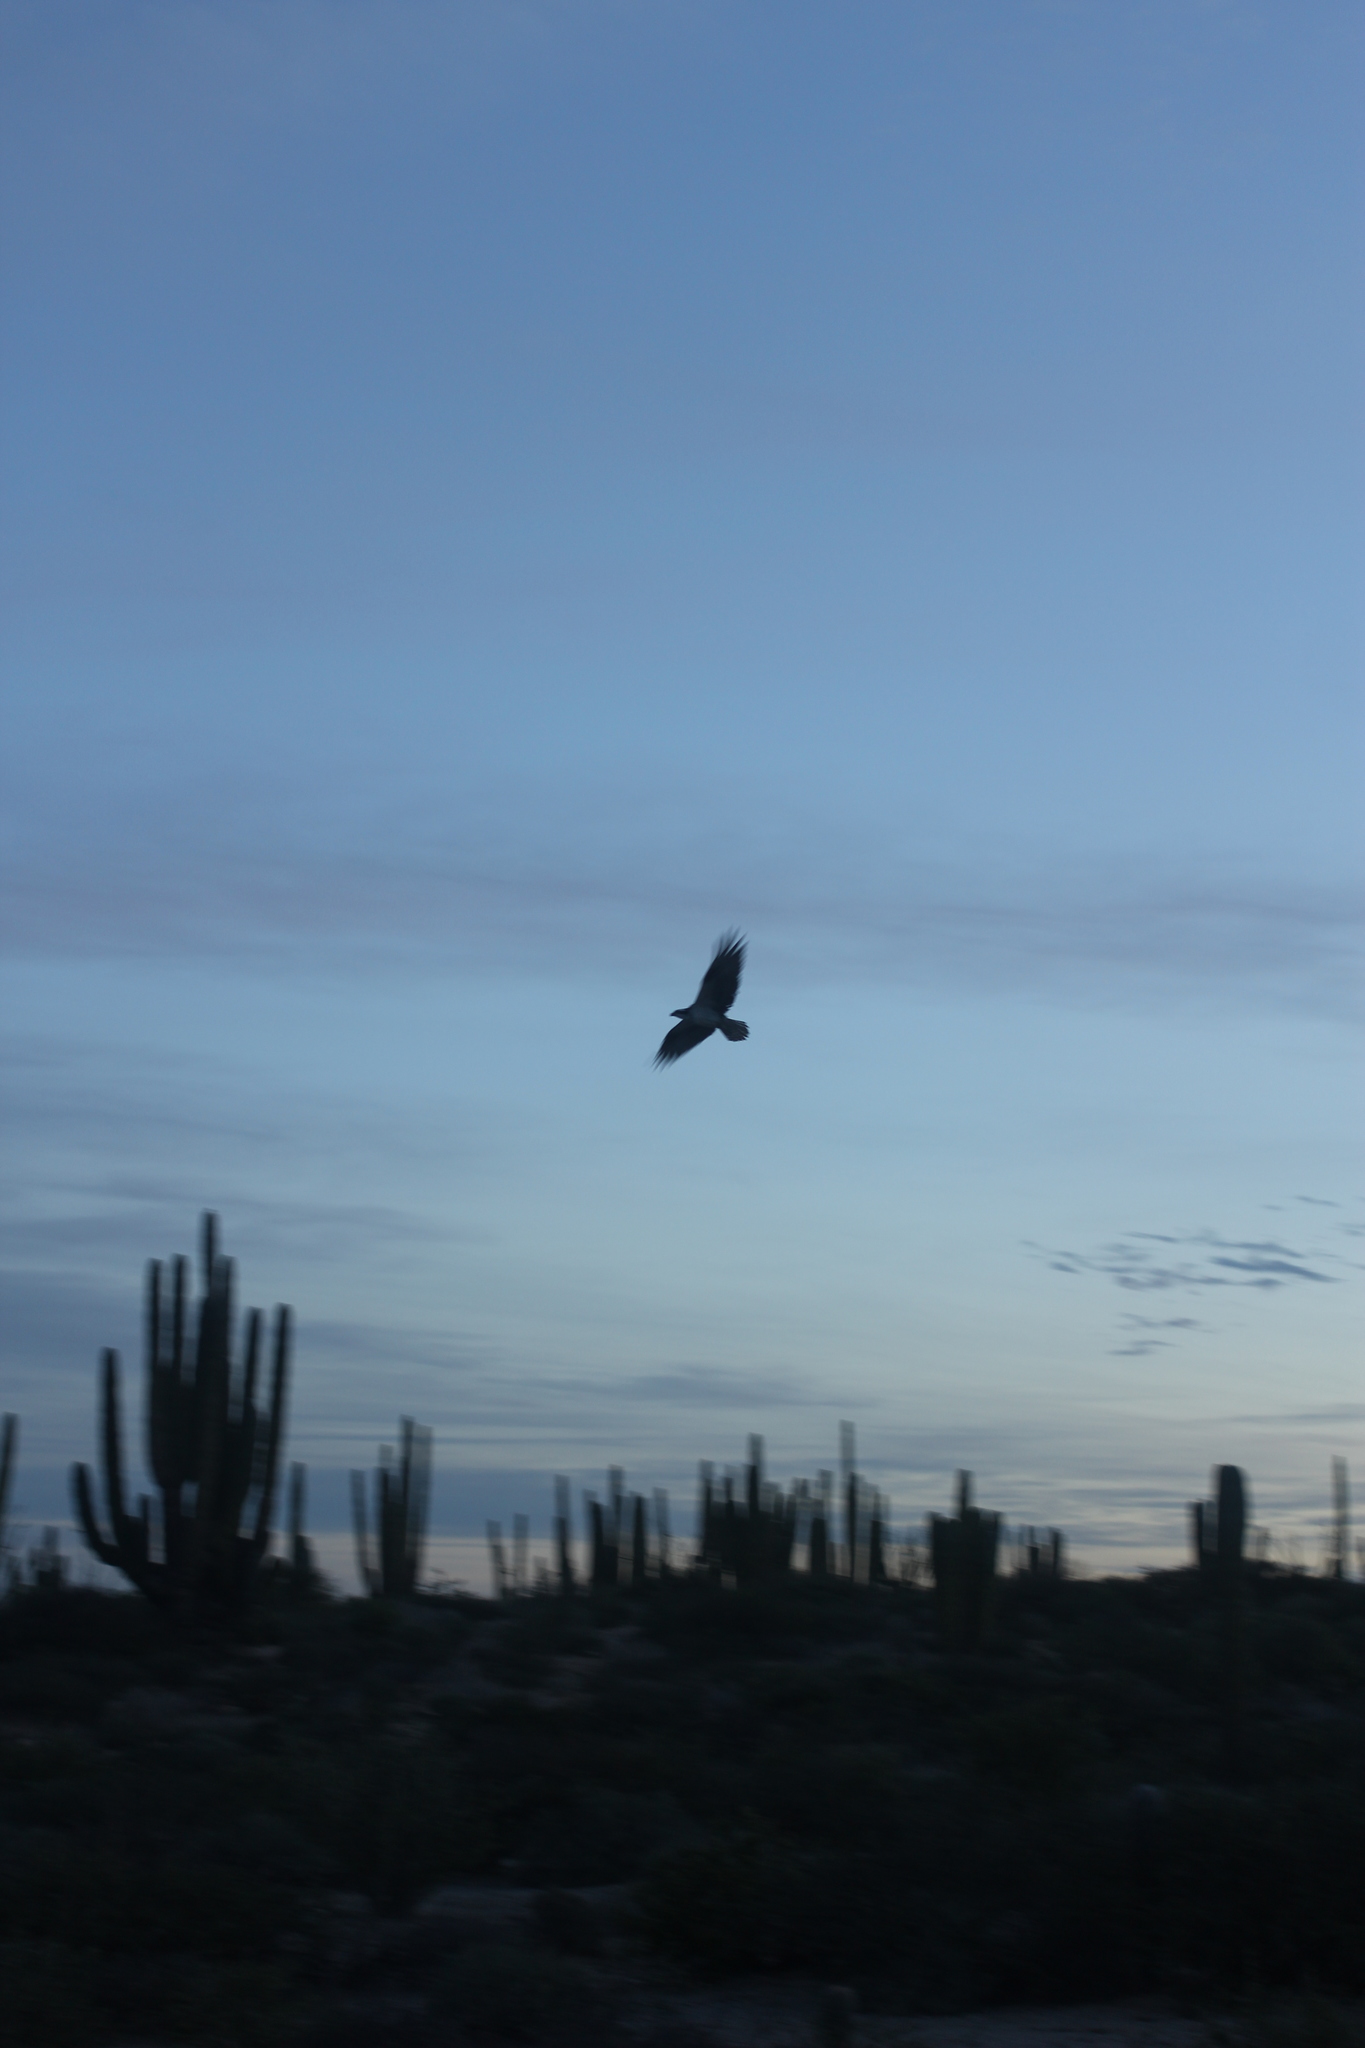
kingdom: Animalia
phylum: Chordata
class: Aves
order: Accipitriformes
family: Pandionidae
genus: Pandion
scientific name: Pandion haliaetus
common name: Osprey
